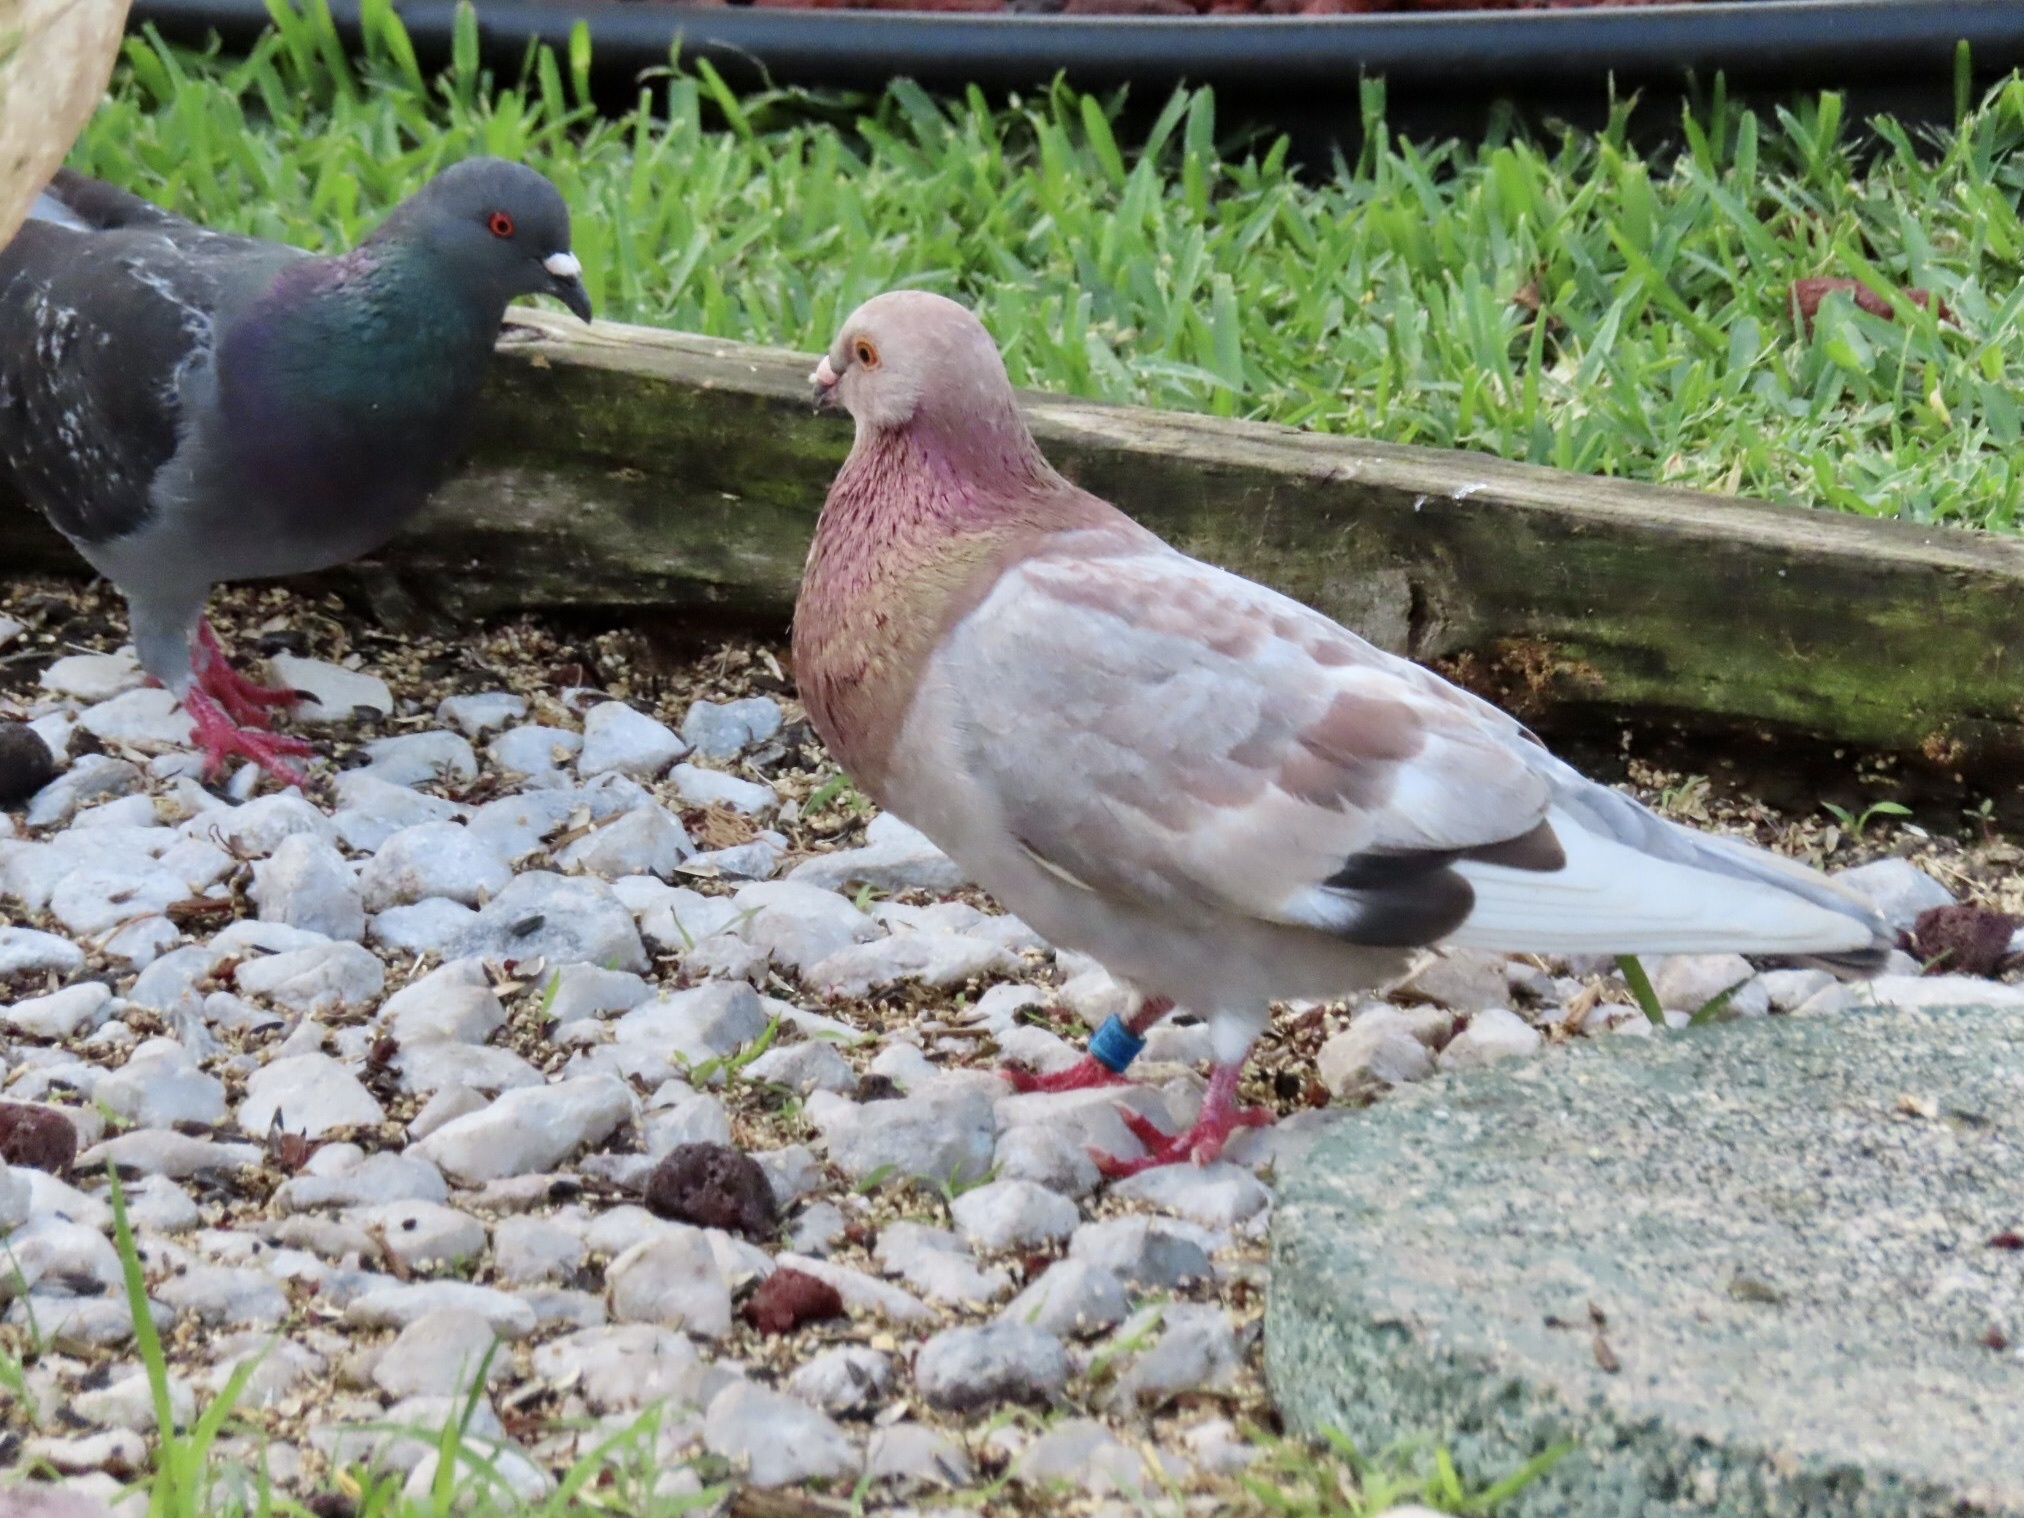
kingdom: Animalia
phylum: Chordata
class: Aves
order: Columbiformes
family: Columbidae
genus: Columba
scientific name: Columba livia
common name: Rock pigeon
